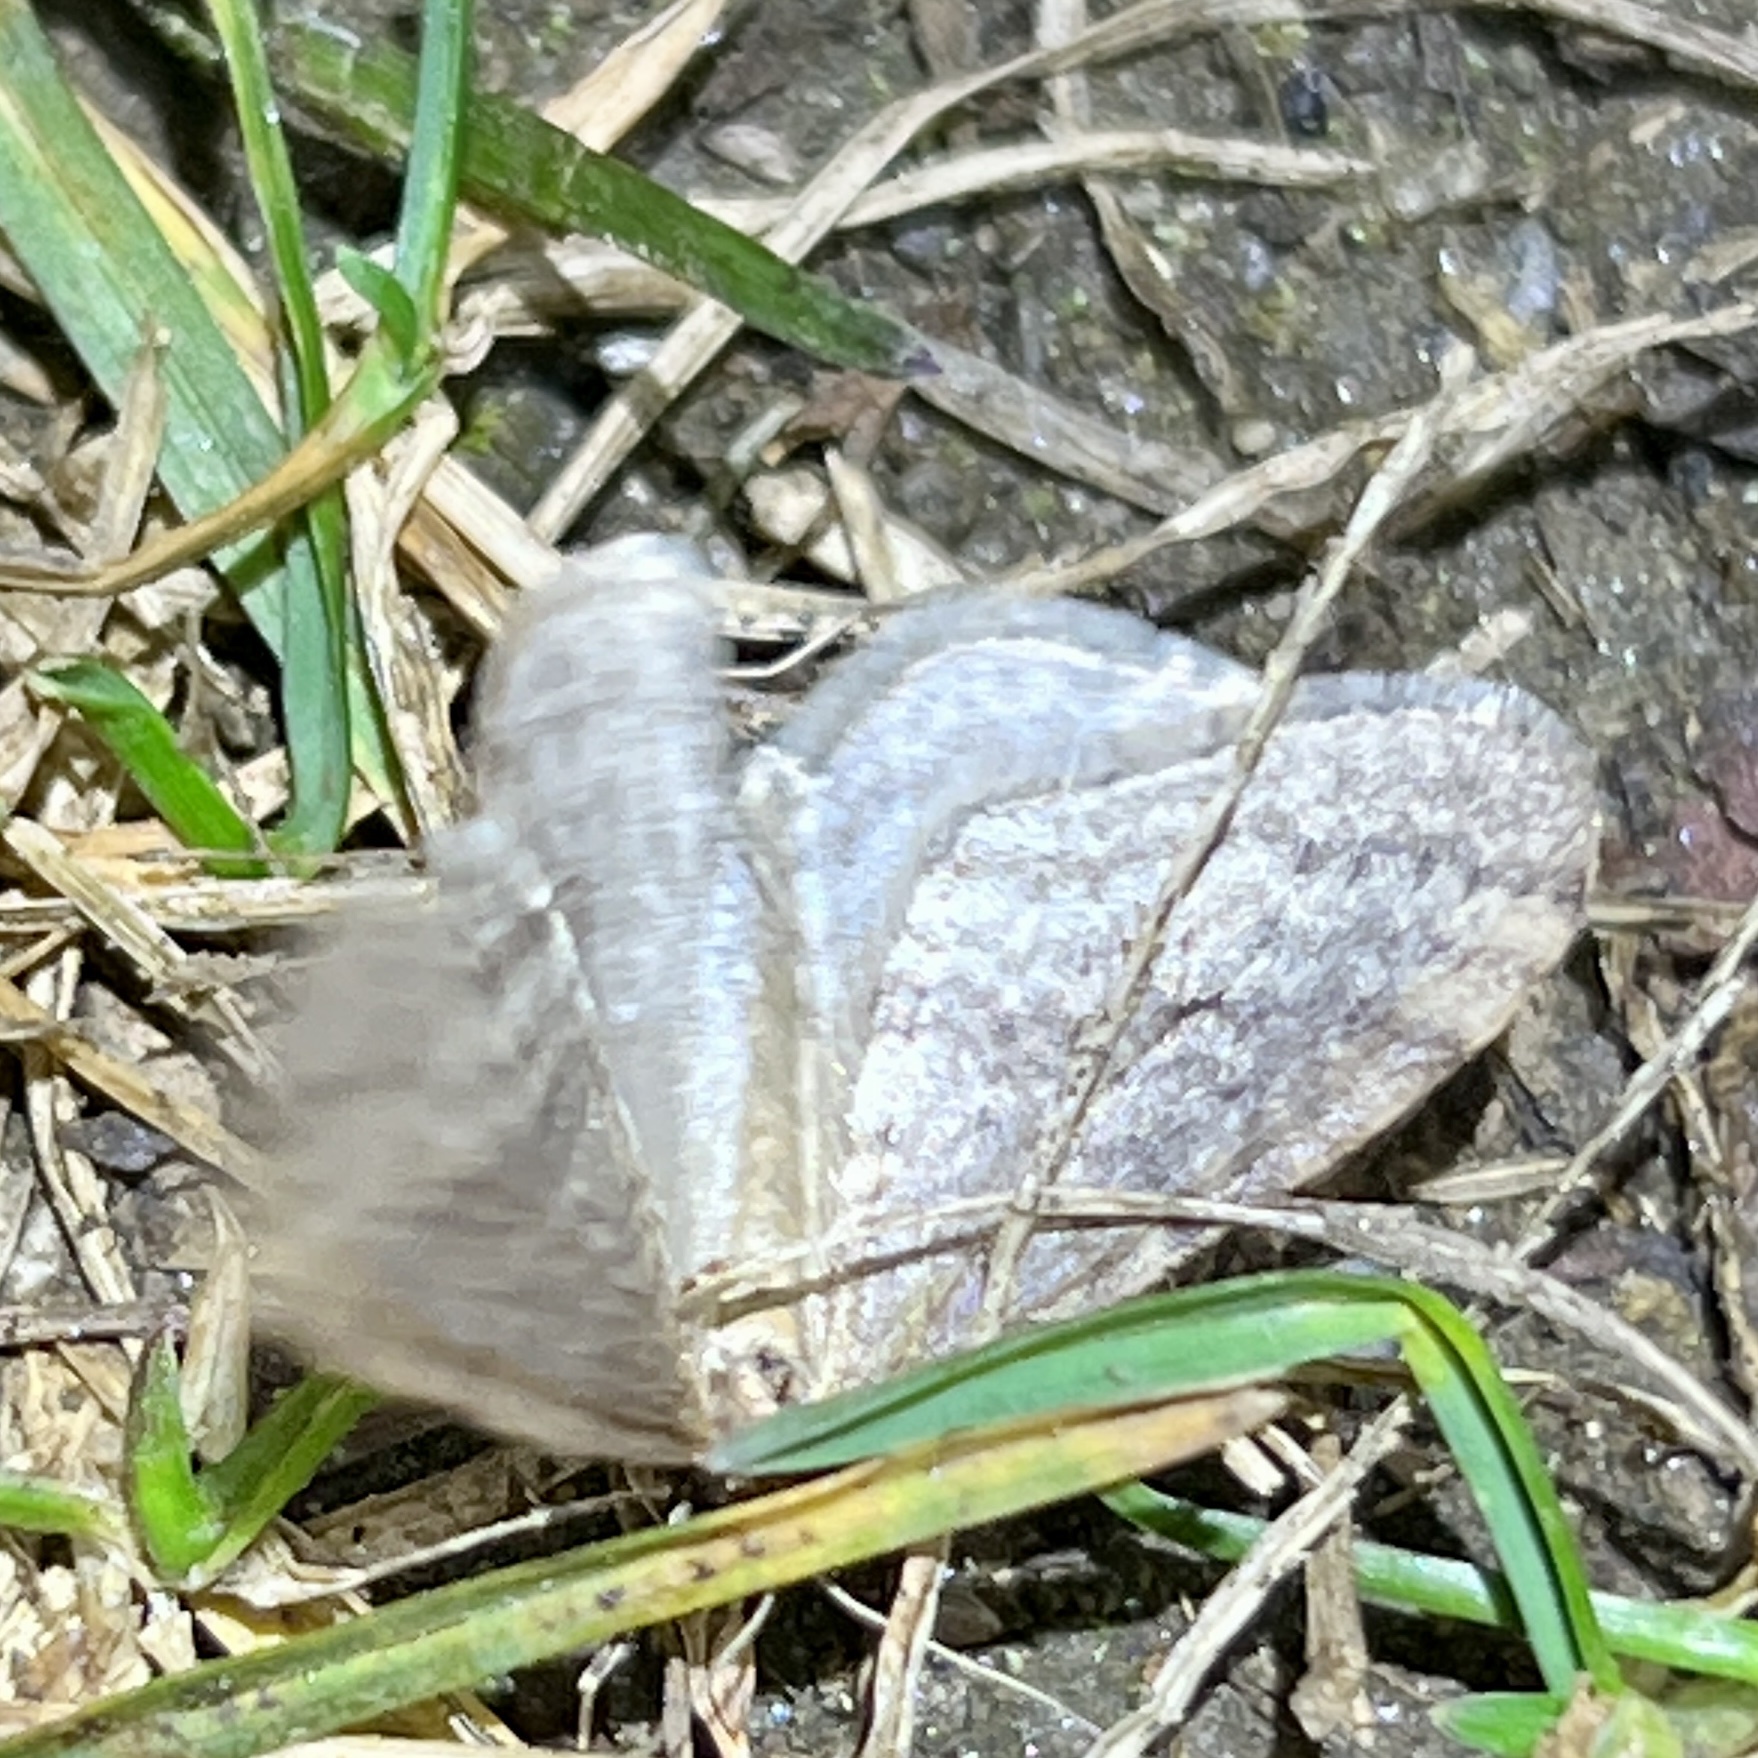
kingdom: Animalia
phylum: Arthropoda
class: Insecta
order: Lepidoptera
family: Geometridae
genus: Operophtera
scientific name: Operophtera bruceata
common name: Bruce spanworm
